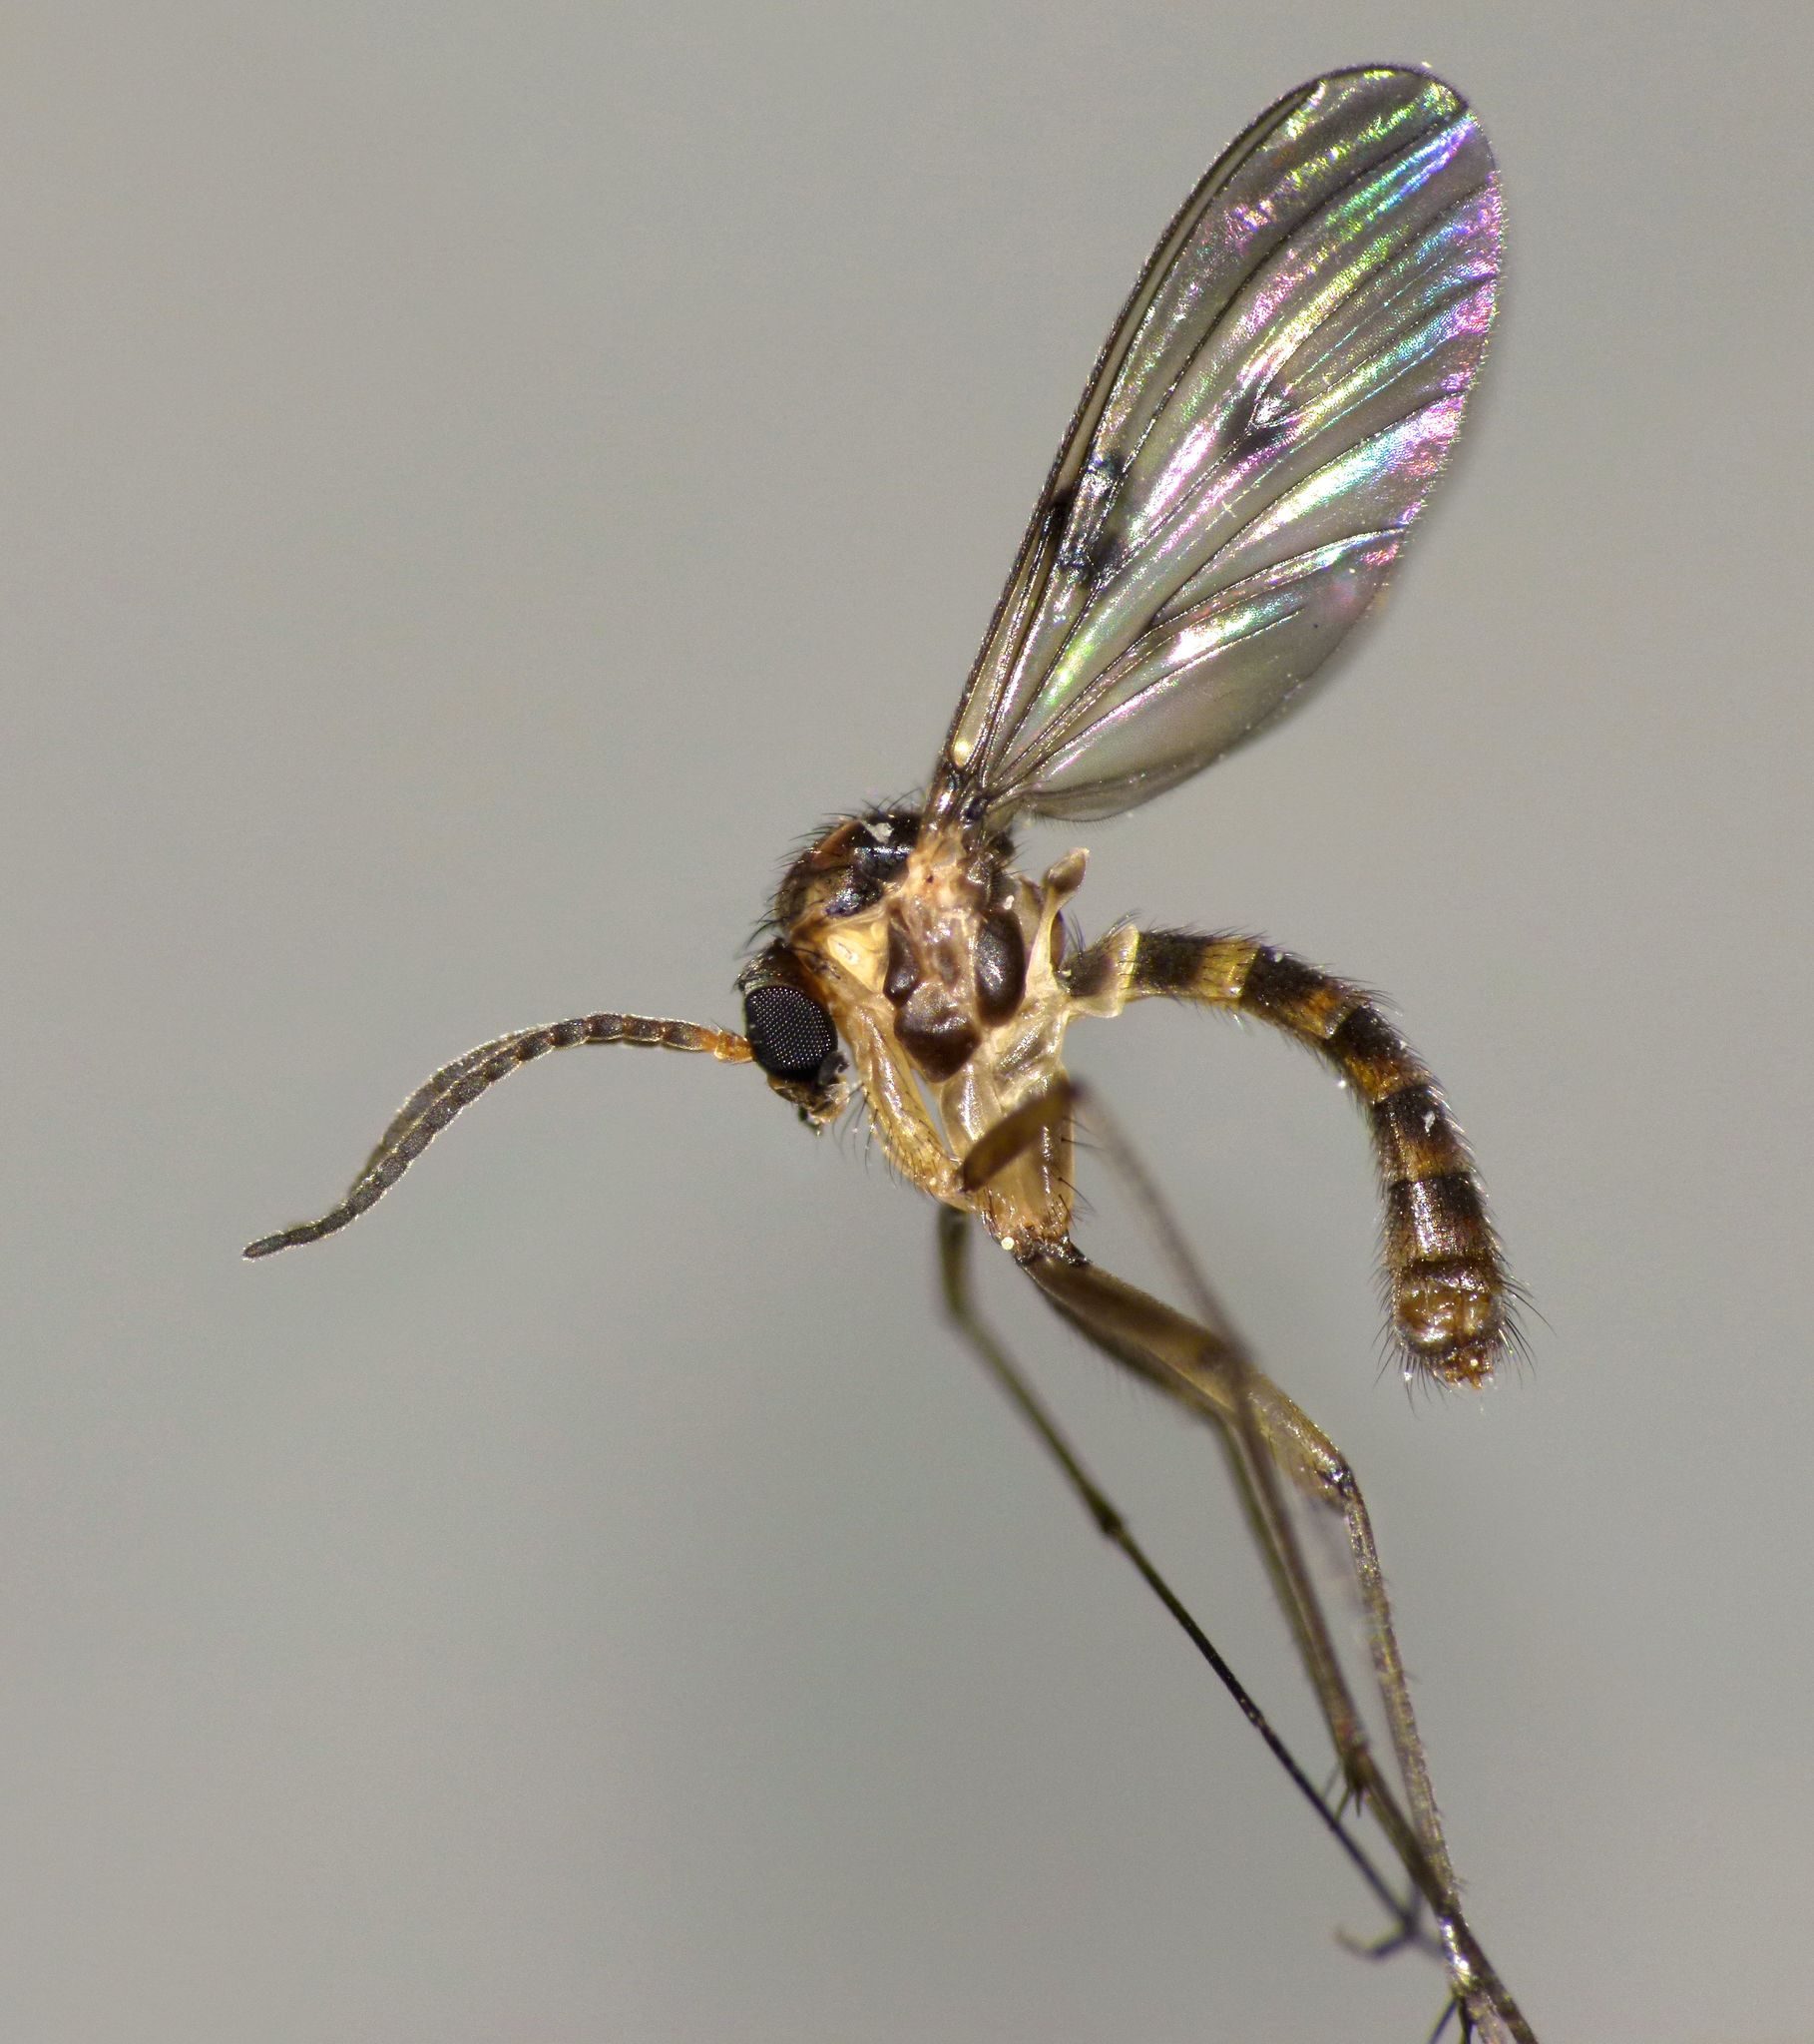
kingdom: Animalia
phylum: Arthropoda
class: Insecta
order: Diptera
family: Mycetophilidae
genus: Mycomya
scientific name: Mycomya quadrimaculata
